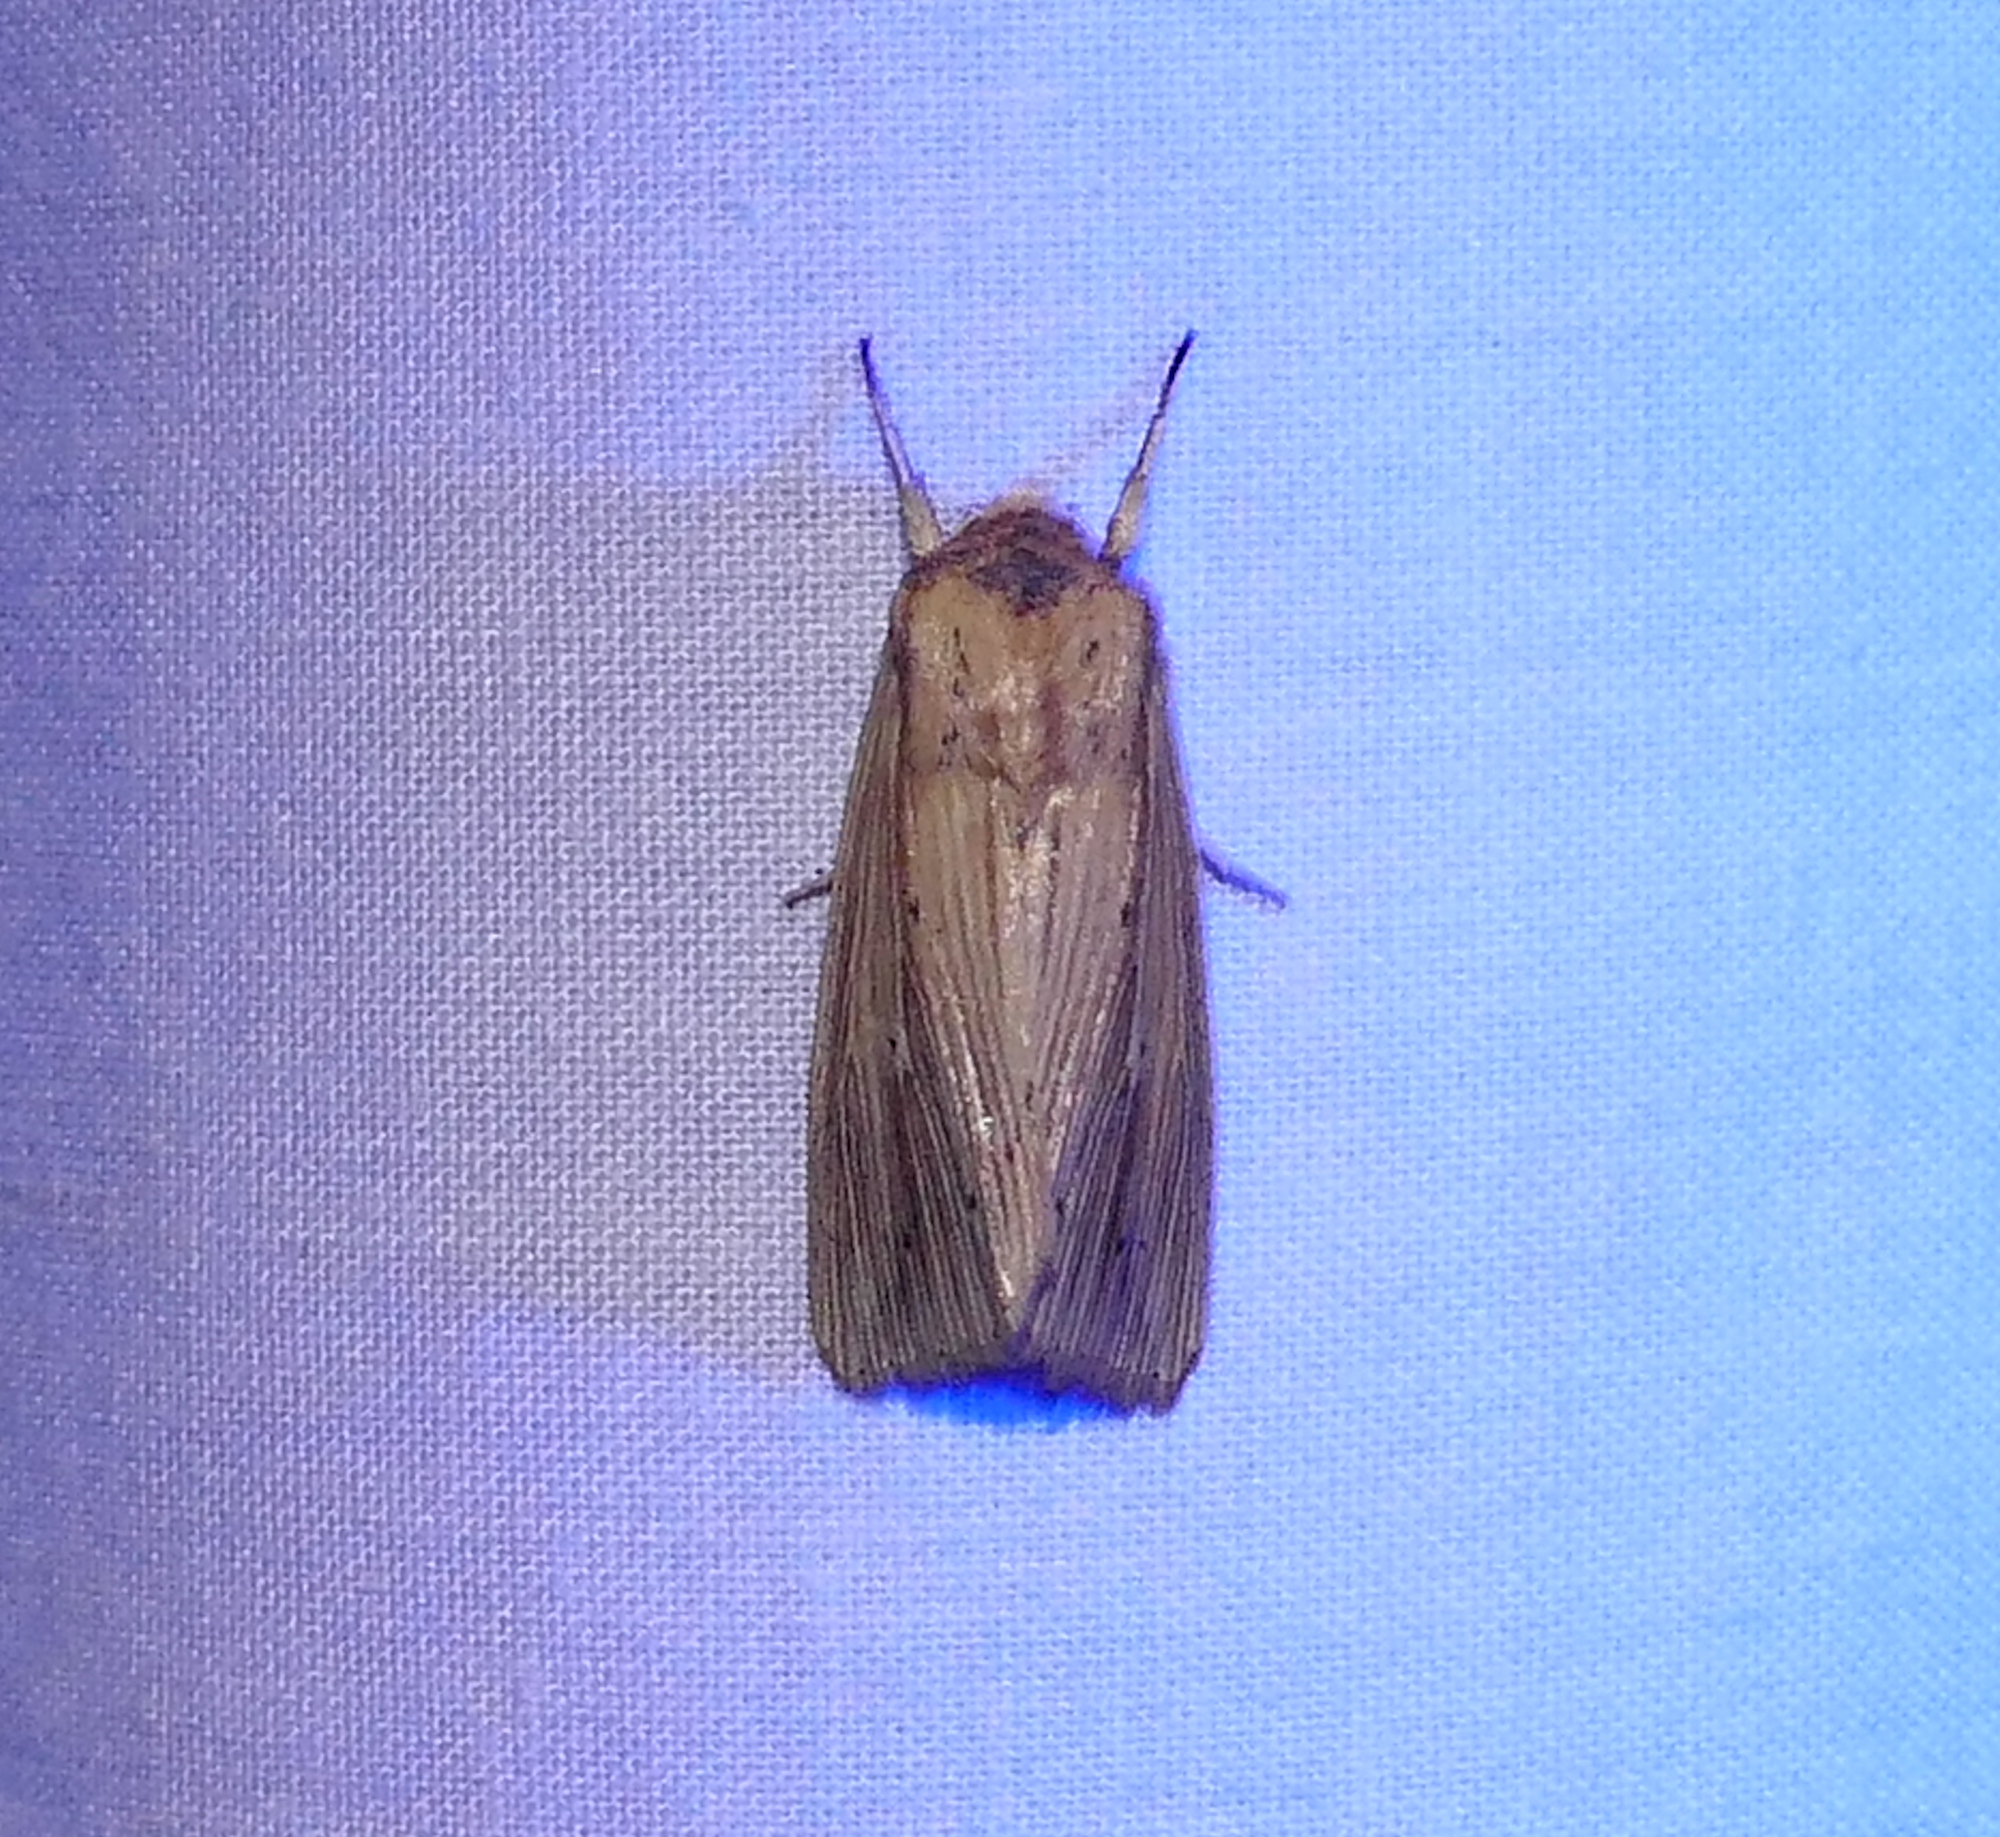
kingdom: Animalia
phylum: Arthropoda
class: Insecta
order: Lepidoptera
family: Noctuidae
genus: Leucania
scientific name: Leucania adjuta
